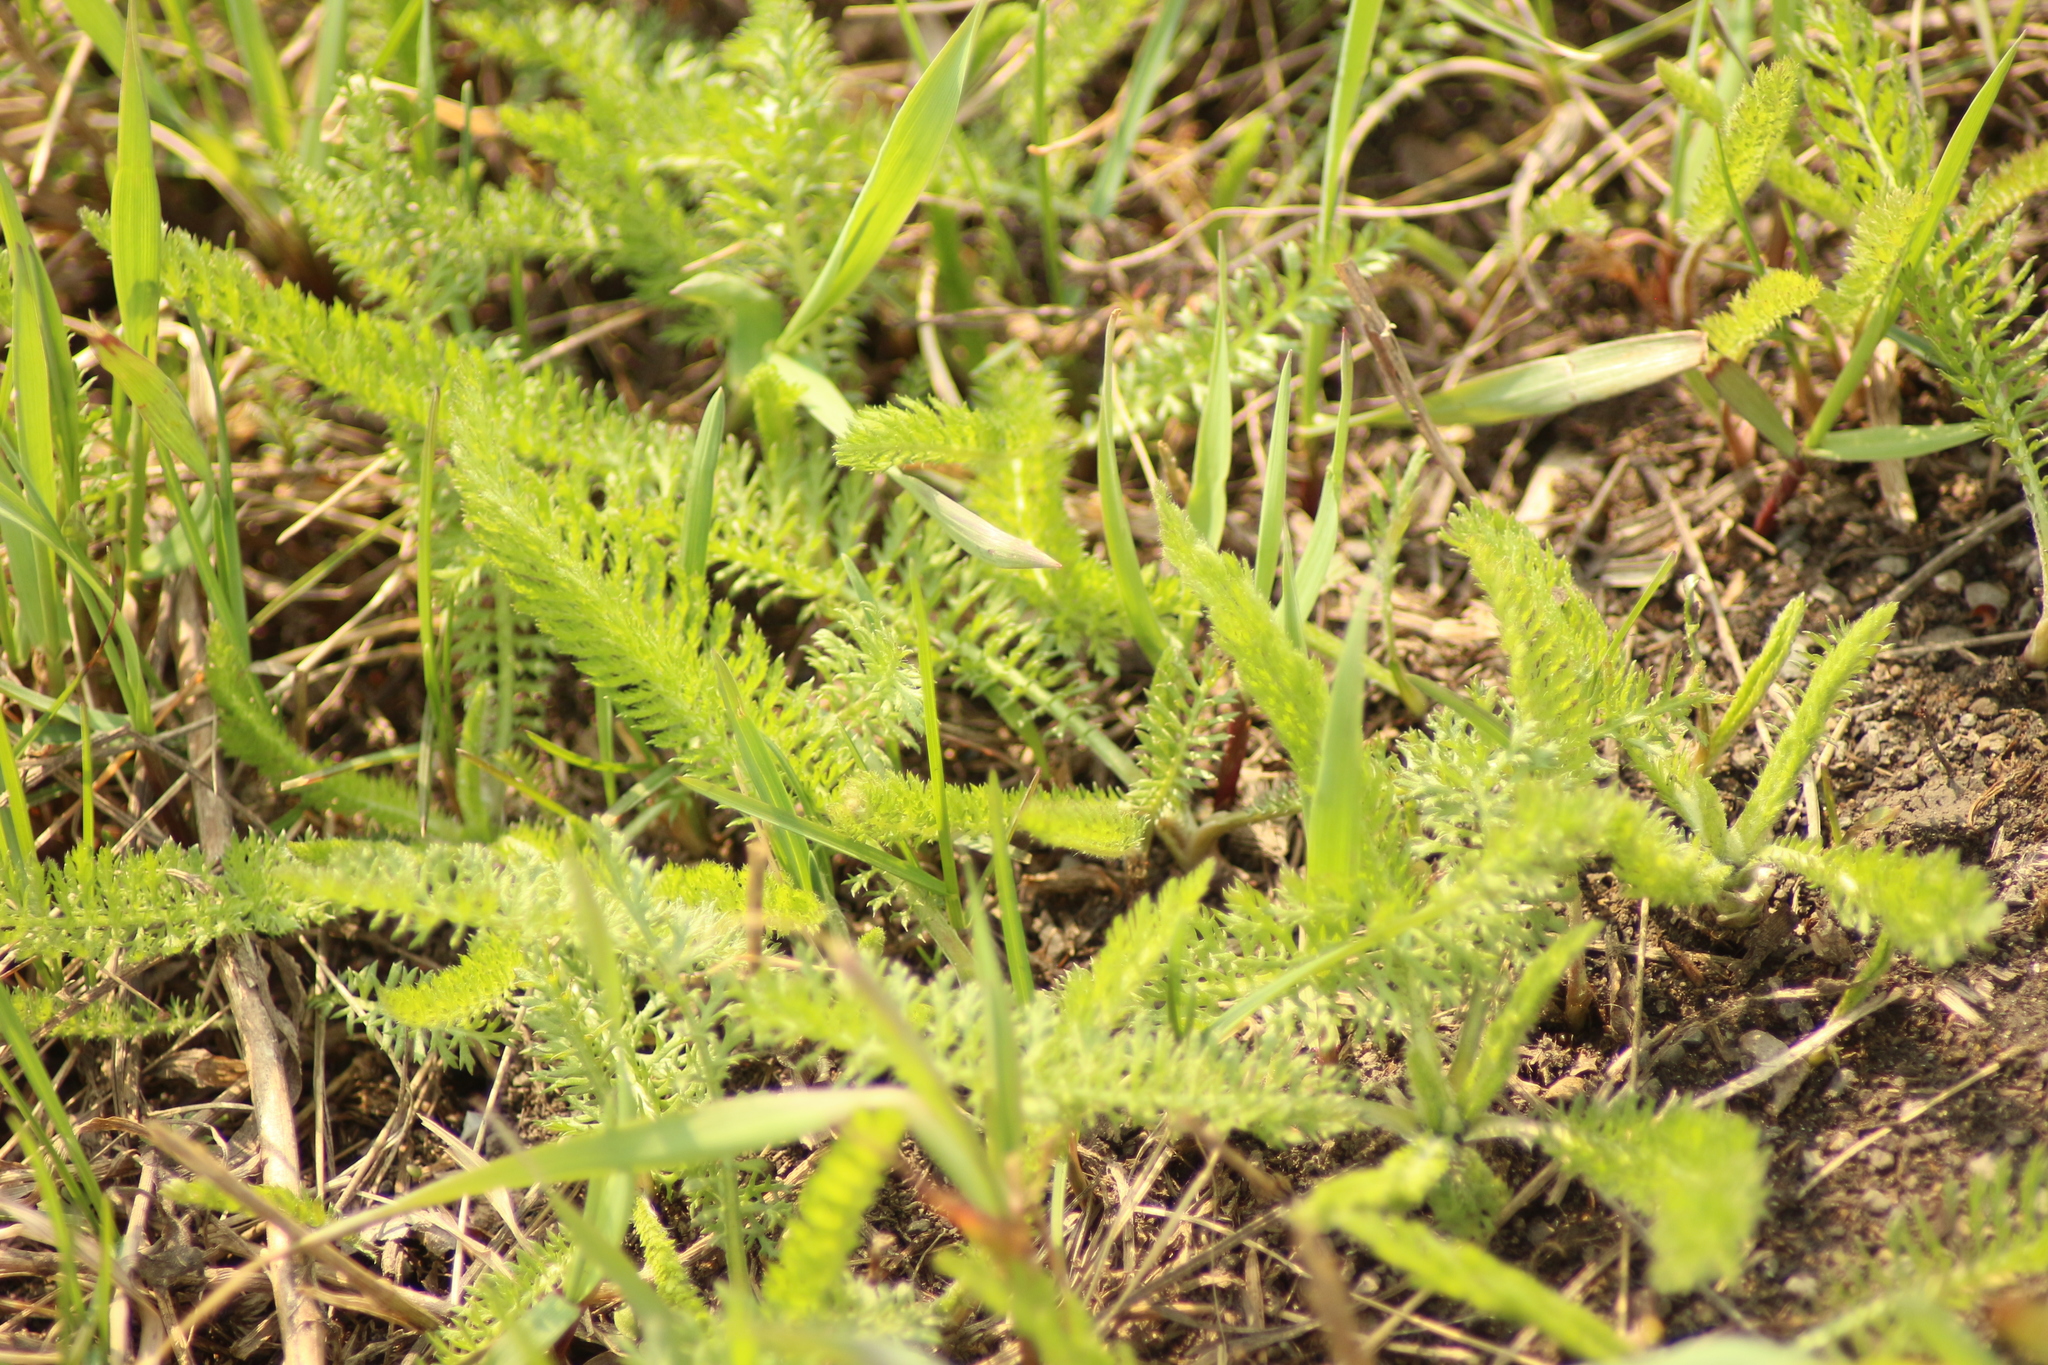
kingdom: Plantae
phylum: Tracheophyta
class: Magnoliopsida
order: Asterales
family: Asteraceae
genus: Achillea
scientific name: Achillea millefolium
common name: Yarrow
